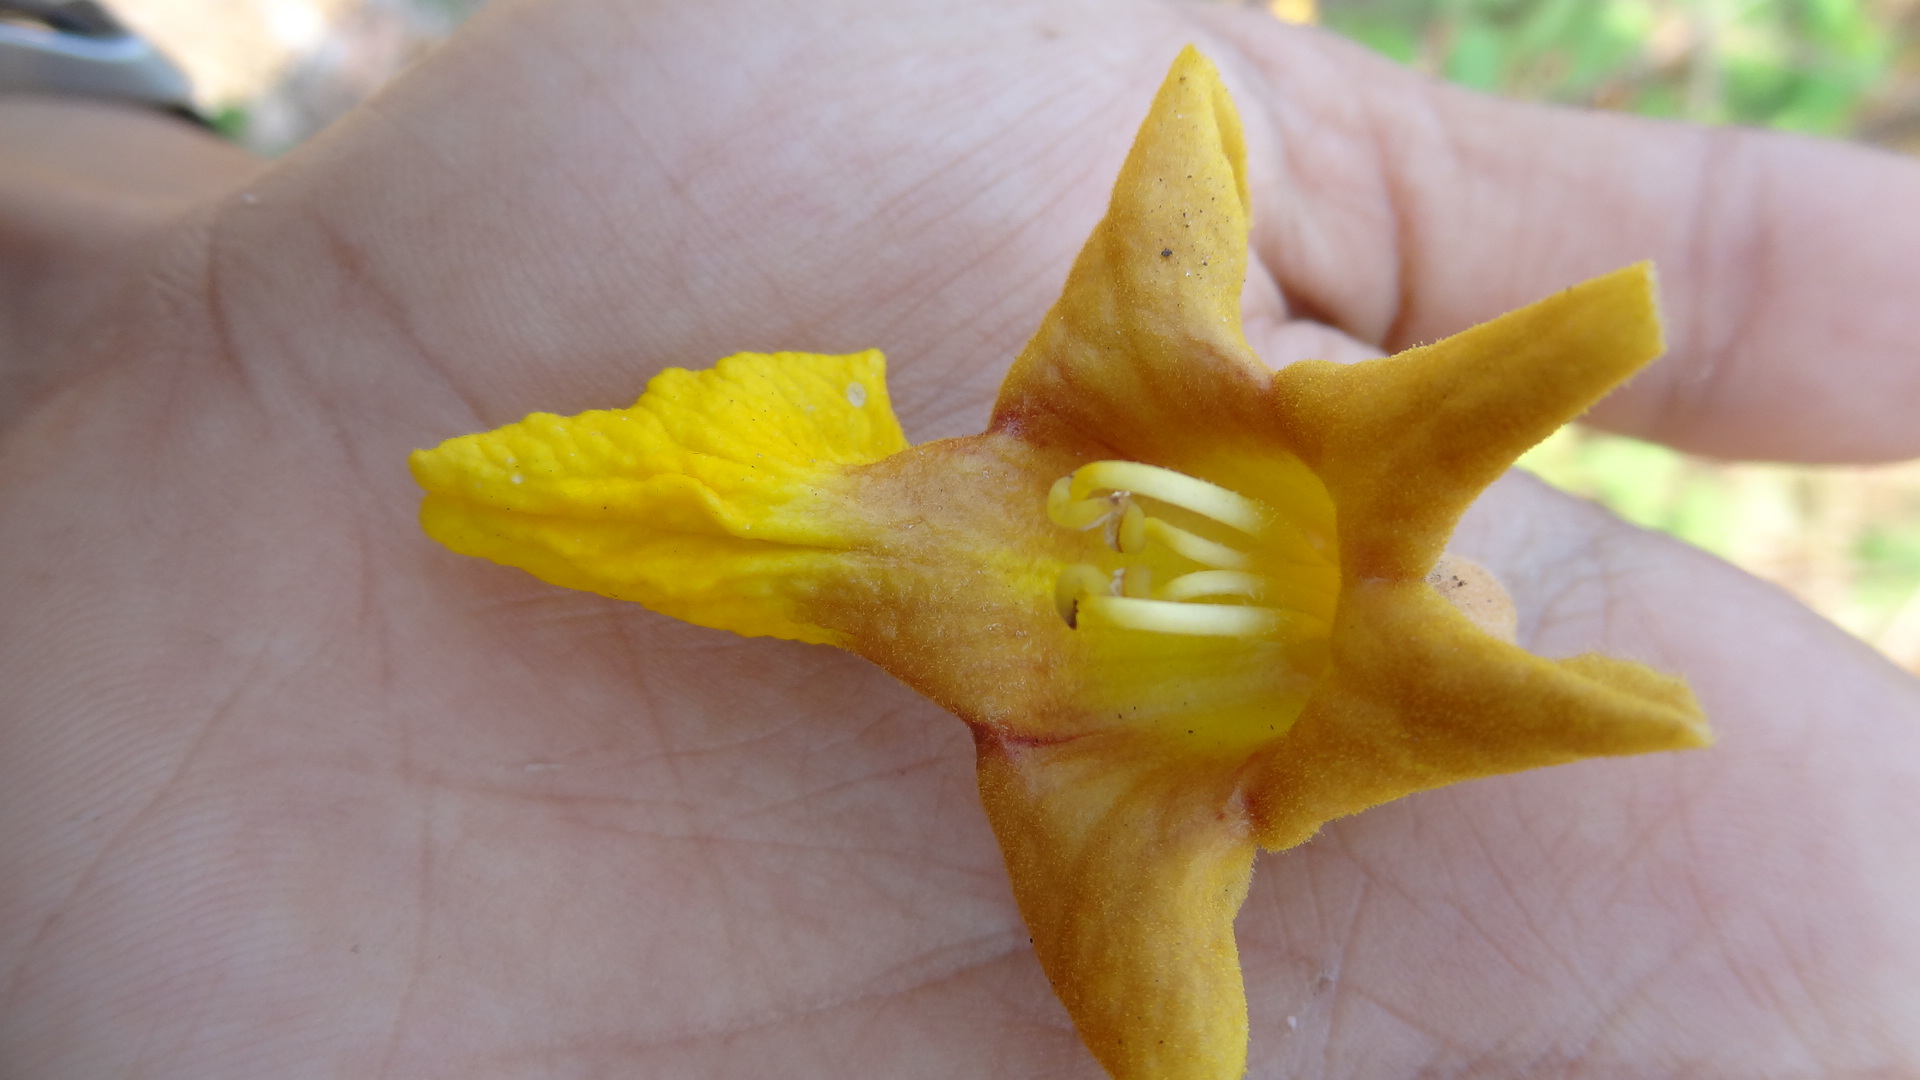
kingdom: Plantae
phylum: Tracheophyta
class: Magnoliopsida
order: Lamiales
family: Lamiaceae
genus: Gmelina
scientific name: Gmelina arborea
